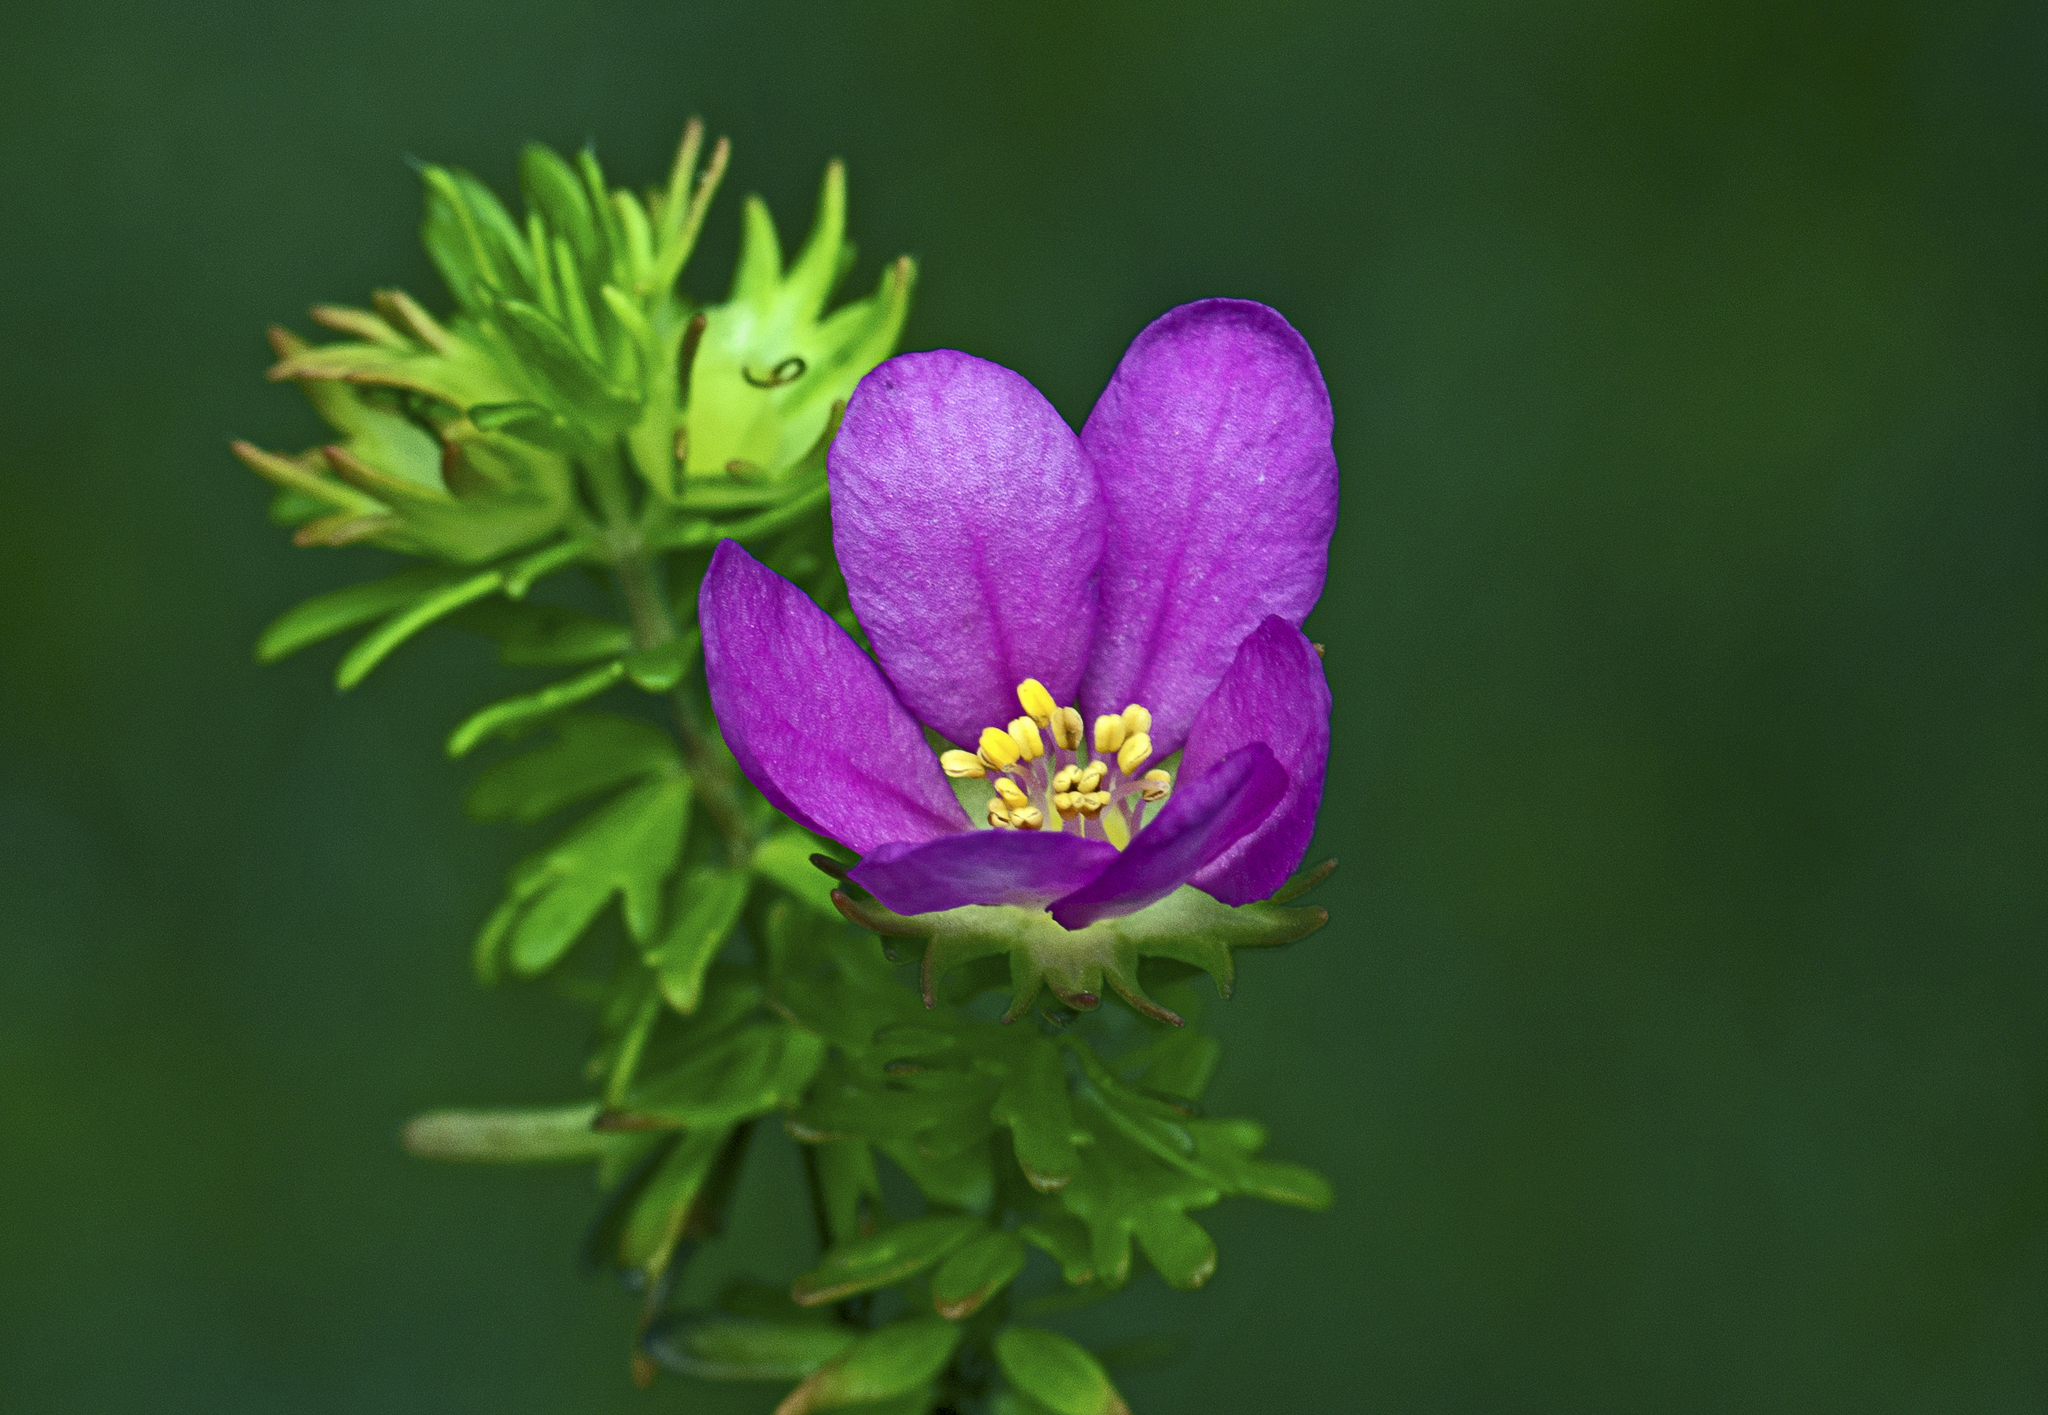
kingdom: Plantae
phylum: Tracheophyta
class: Magnoliopsida
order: Oxalidales
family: Cunoniaceae
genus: Bauera
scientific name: Bauera capitata
